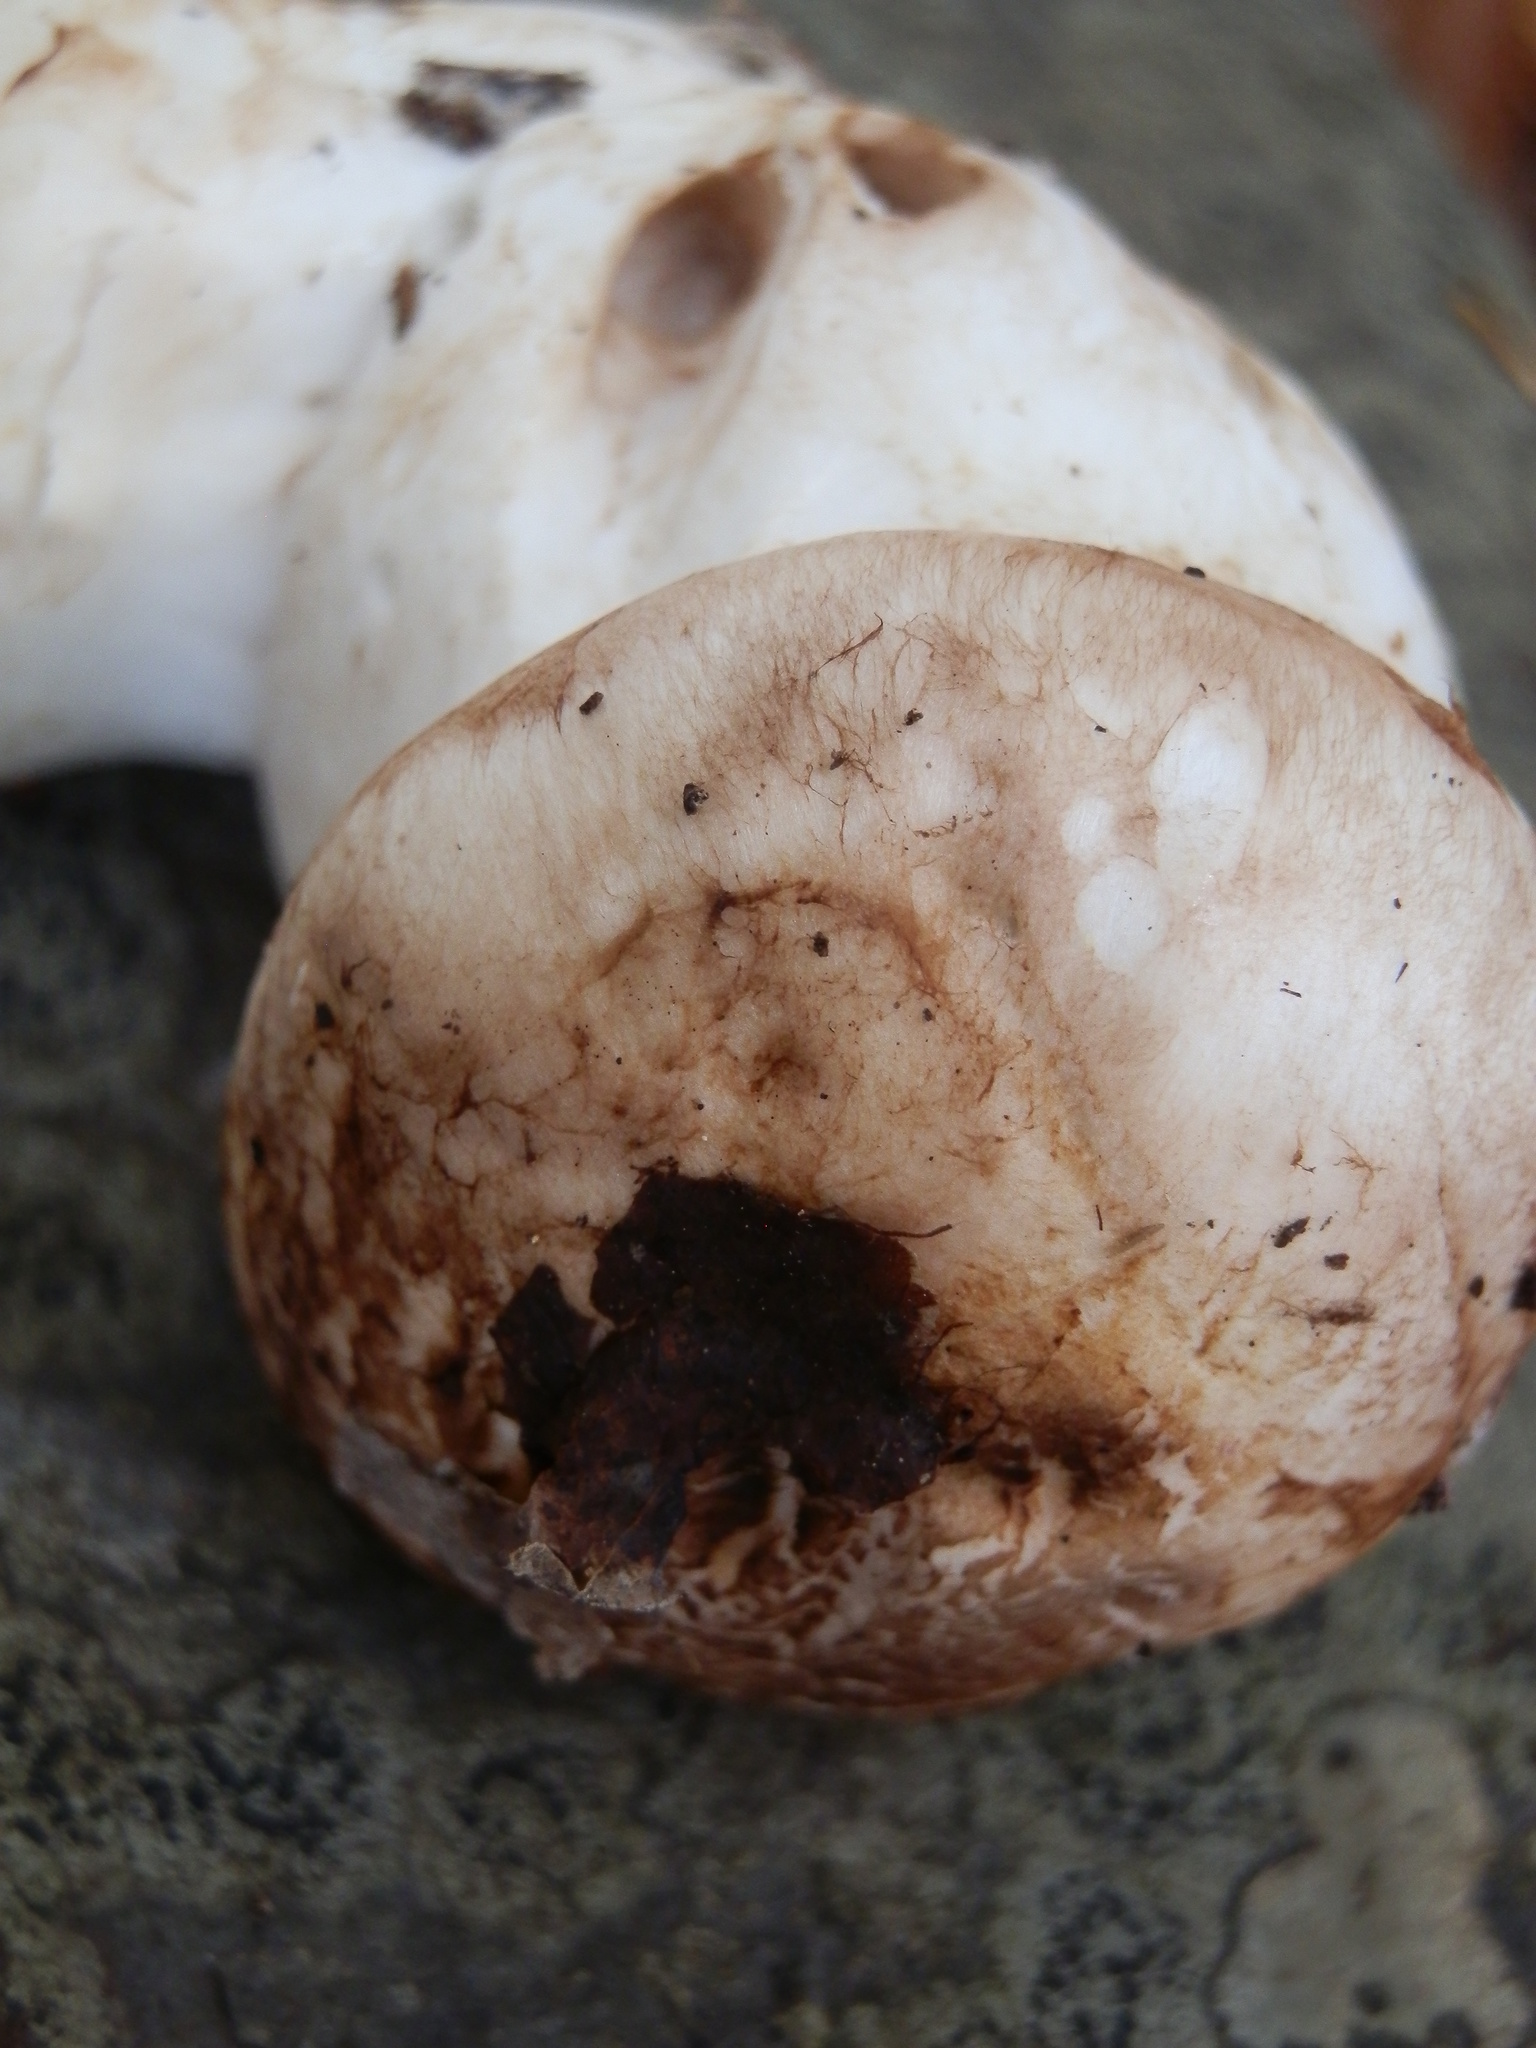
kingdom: Fungi
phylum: Basidiomycota
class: Agaricomycetes
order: Agaricales
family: Tricholomataceae
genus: Tricholoma
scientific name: Tricholoma caligatum
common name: True booted knight
